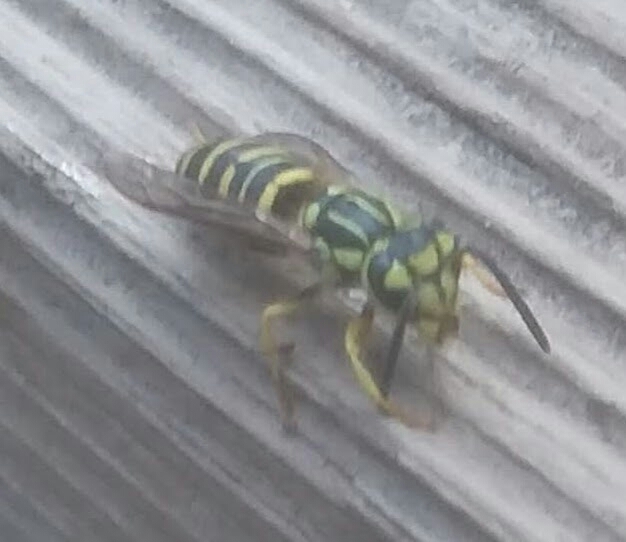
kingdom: Animalia
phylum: Arthropoda
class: Insecta
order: Hymenoptera
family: Vespidae
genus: Vespula
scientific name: Vespula squamosa
